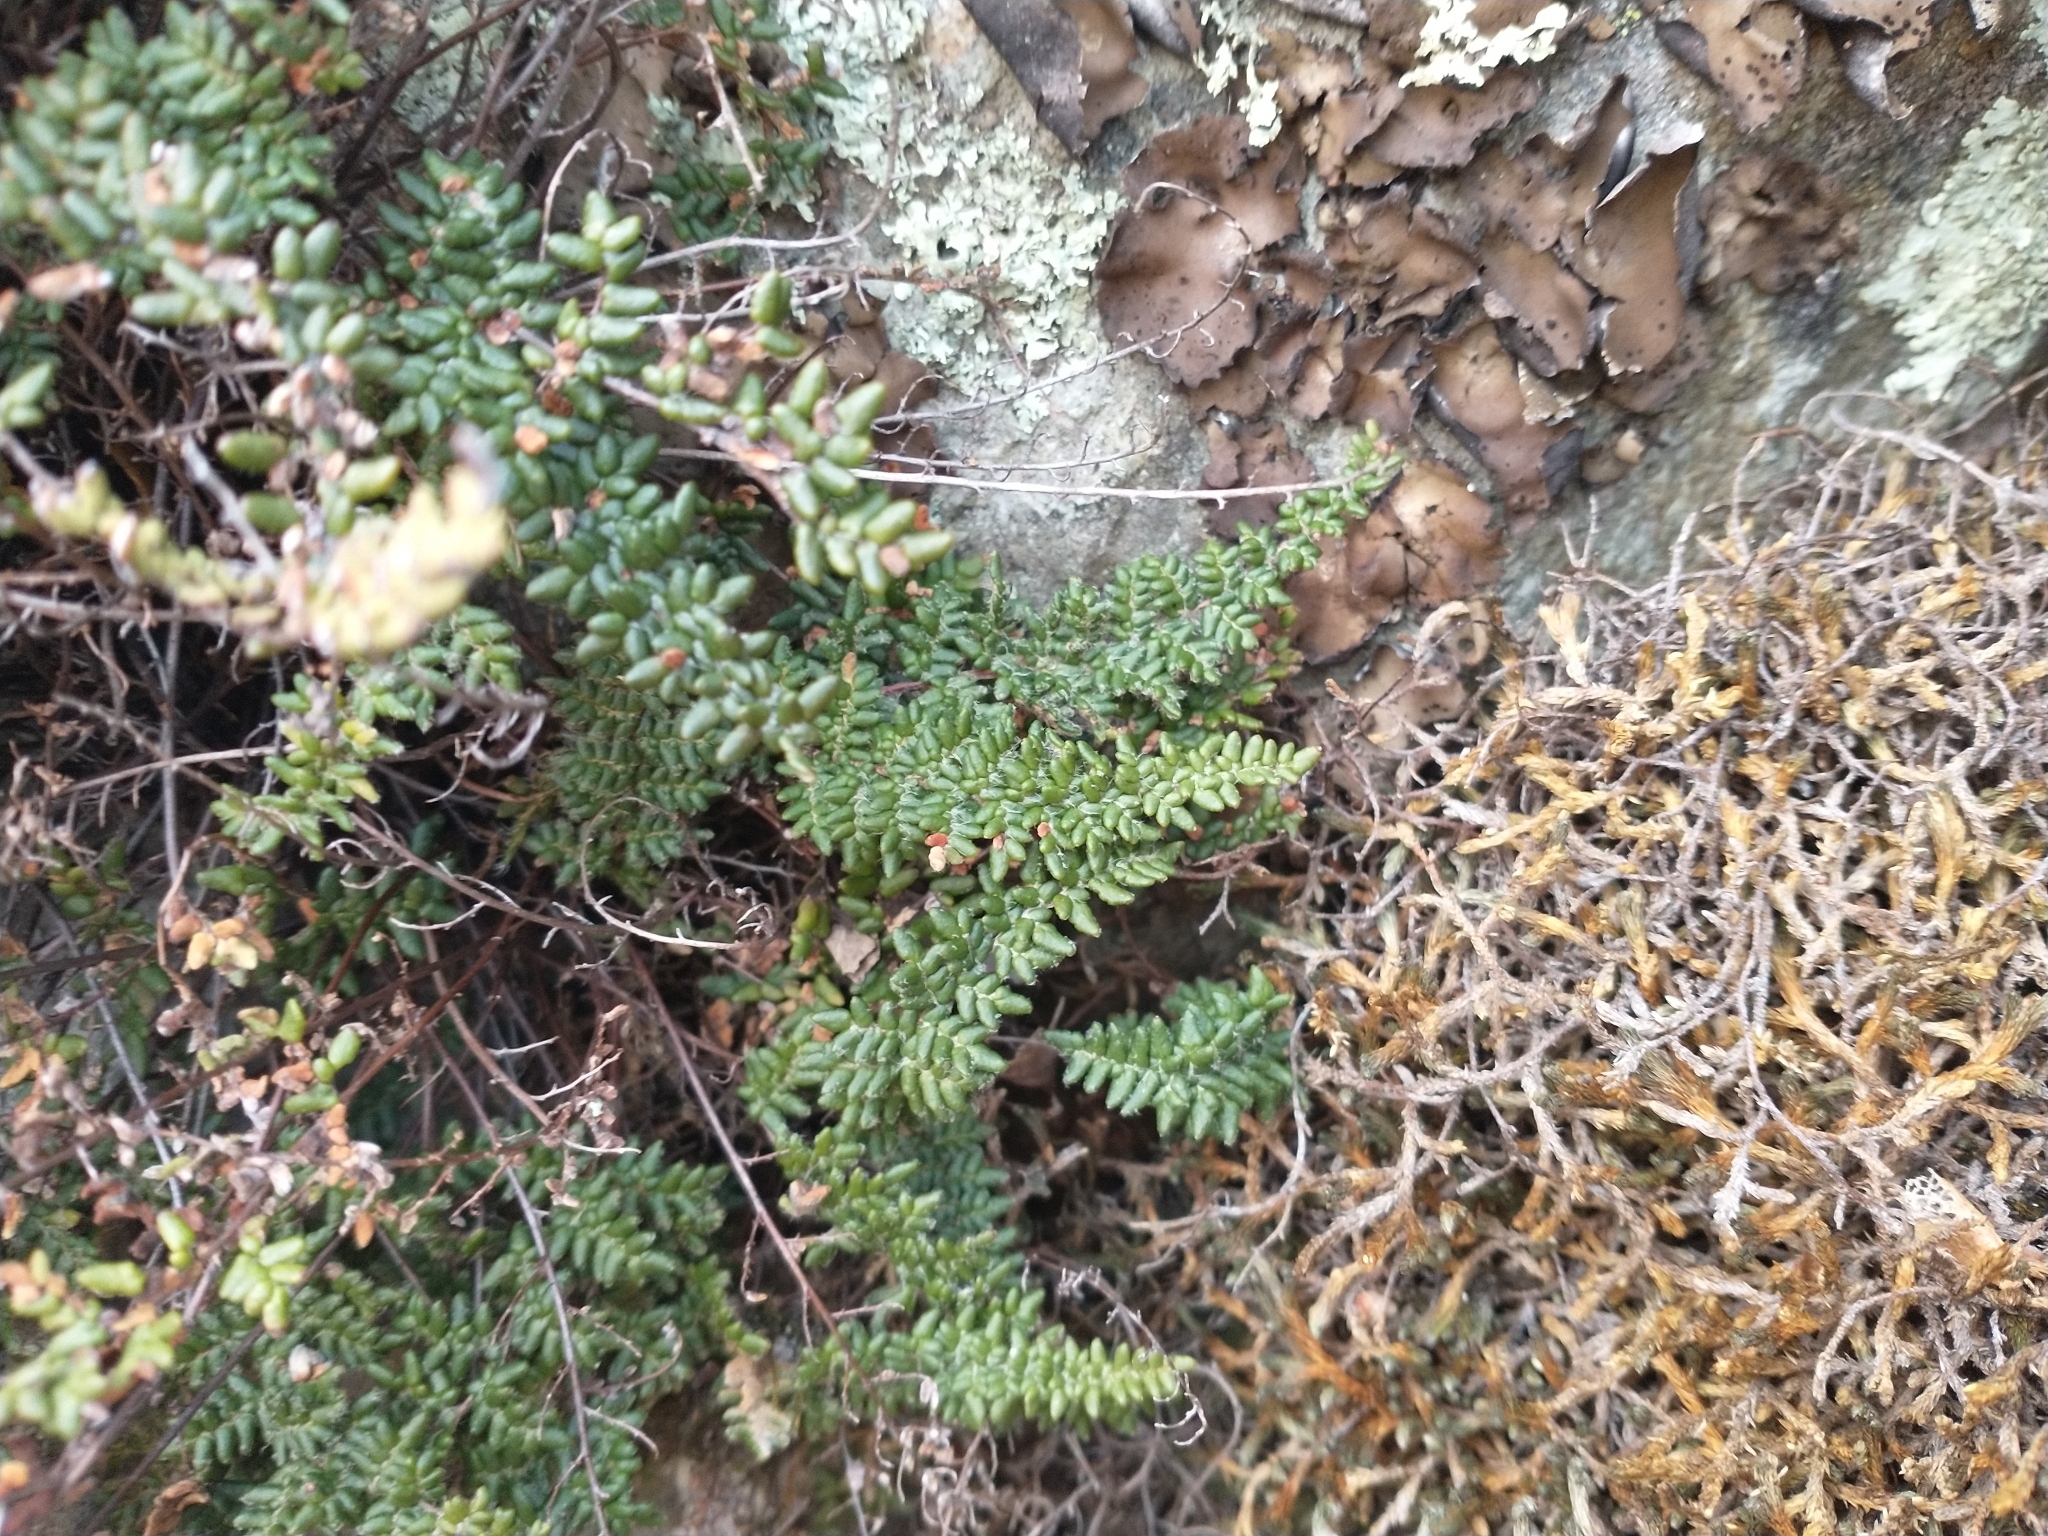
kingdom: Plantae
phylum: Tracheophyta
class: Polypodiopsida
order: Polypodiales
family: Pteridaceae
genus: Myriopteris
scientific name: Myriopteris gracillima
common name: Lace fern
